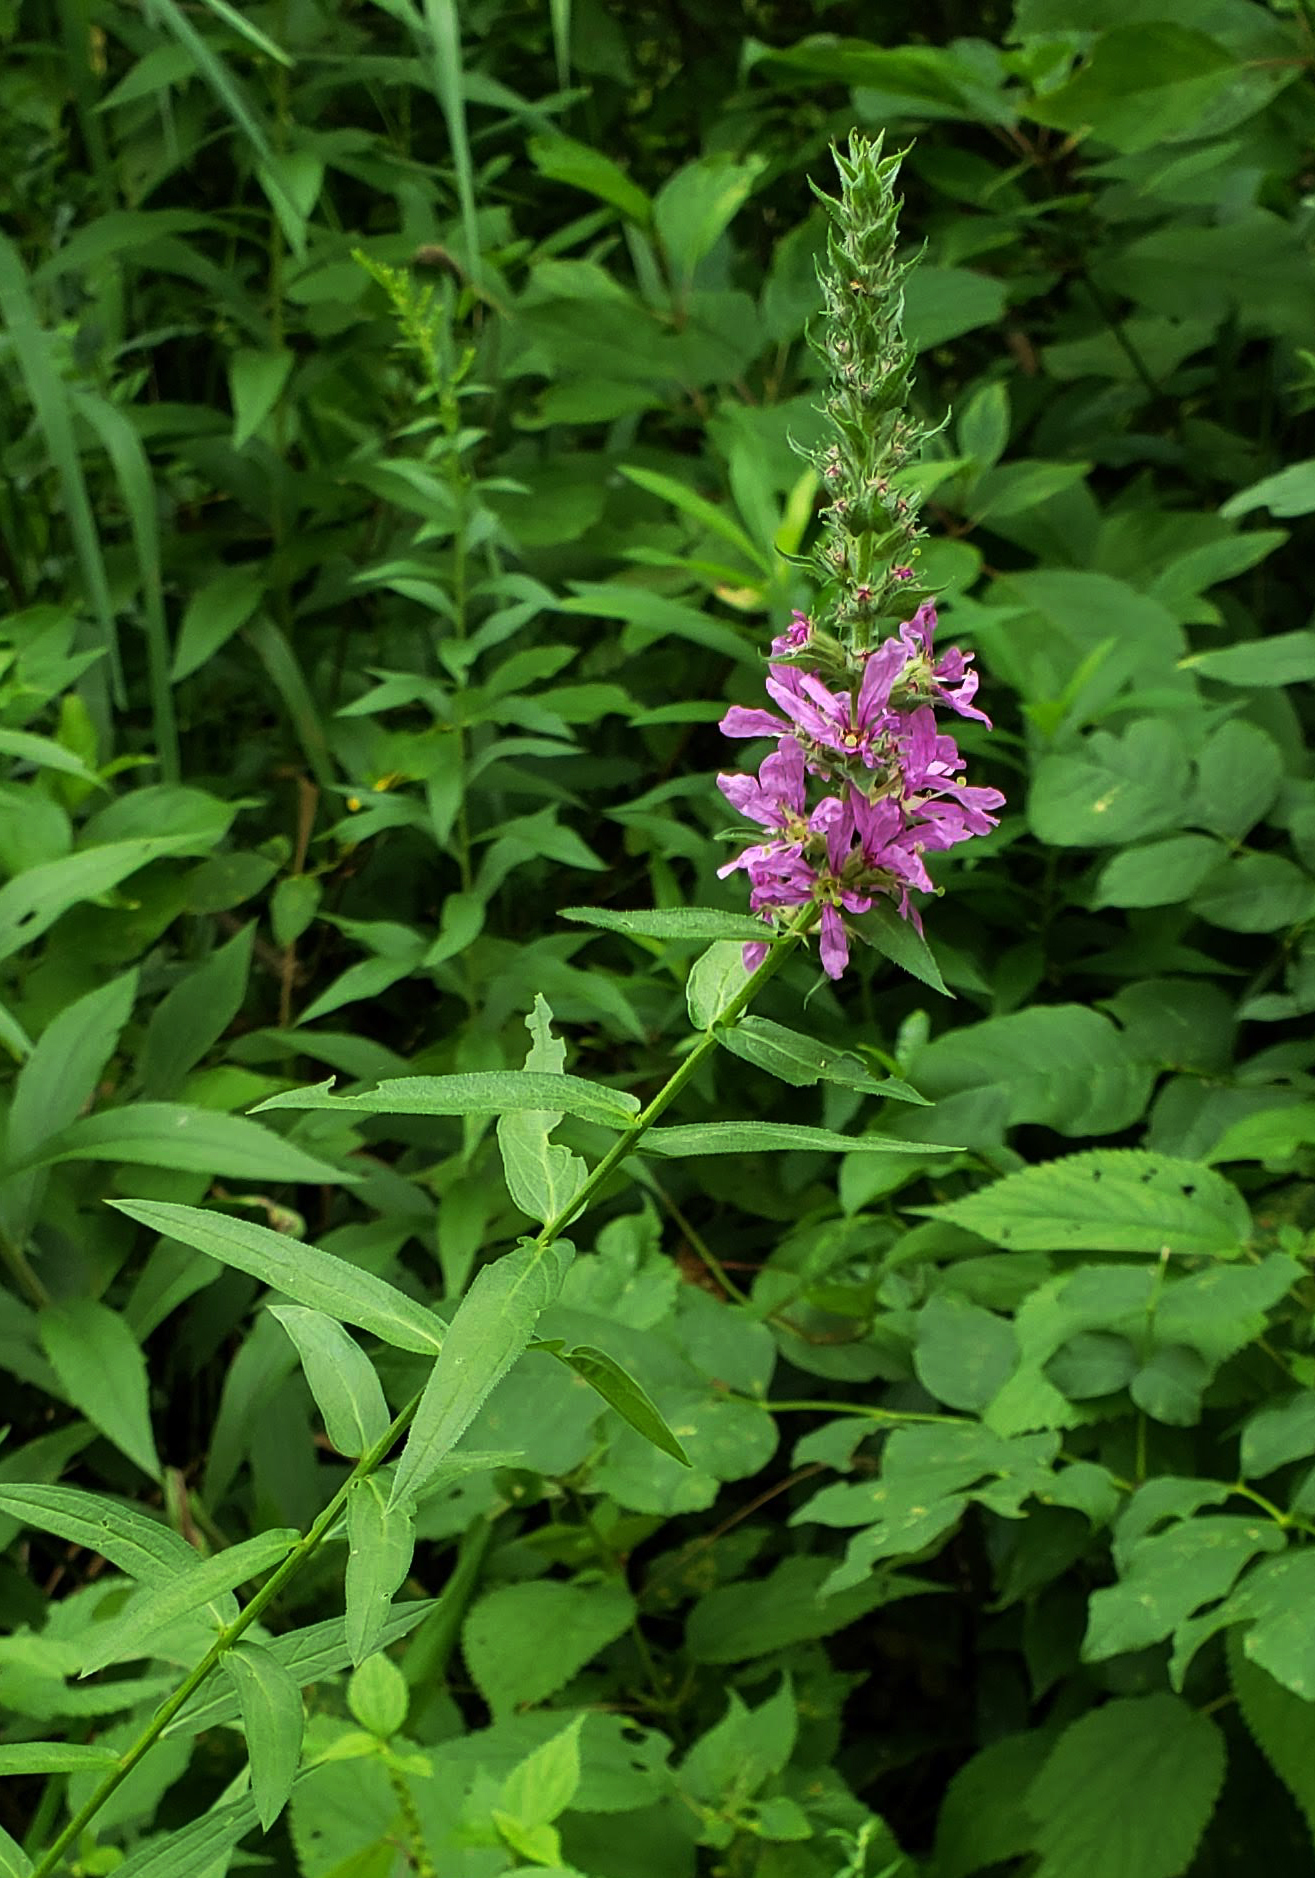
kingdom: Plantae
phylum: Tracheophyta
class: Magnoliopsida
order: Myrtales
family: Lythraceae
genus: Lythrum
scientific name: Lythrum salicaria
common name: Purple loosestrife
